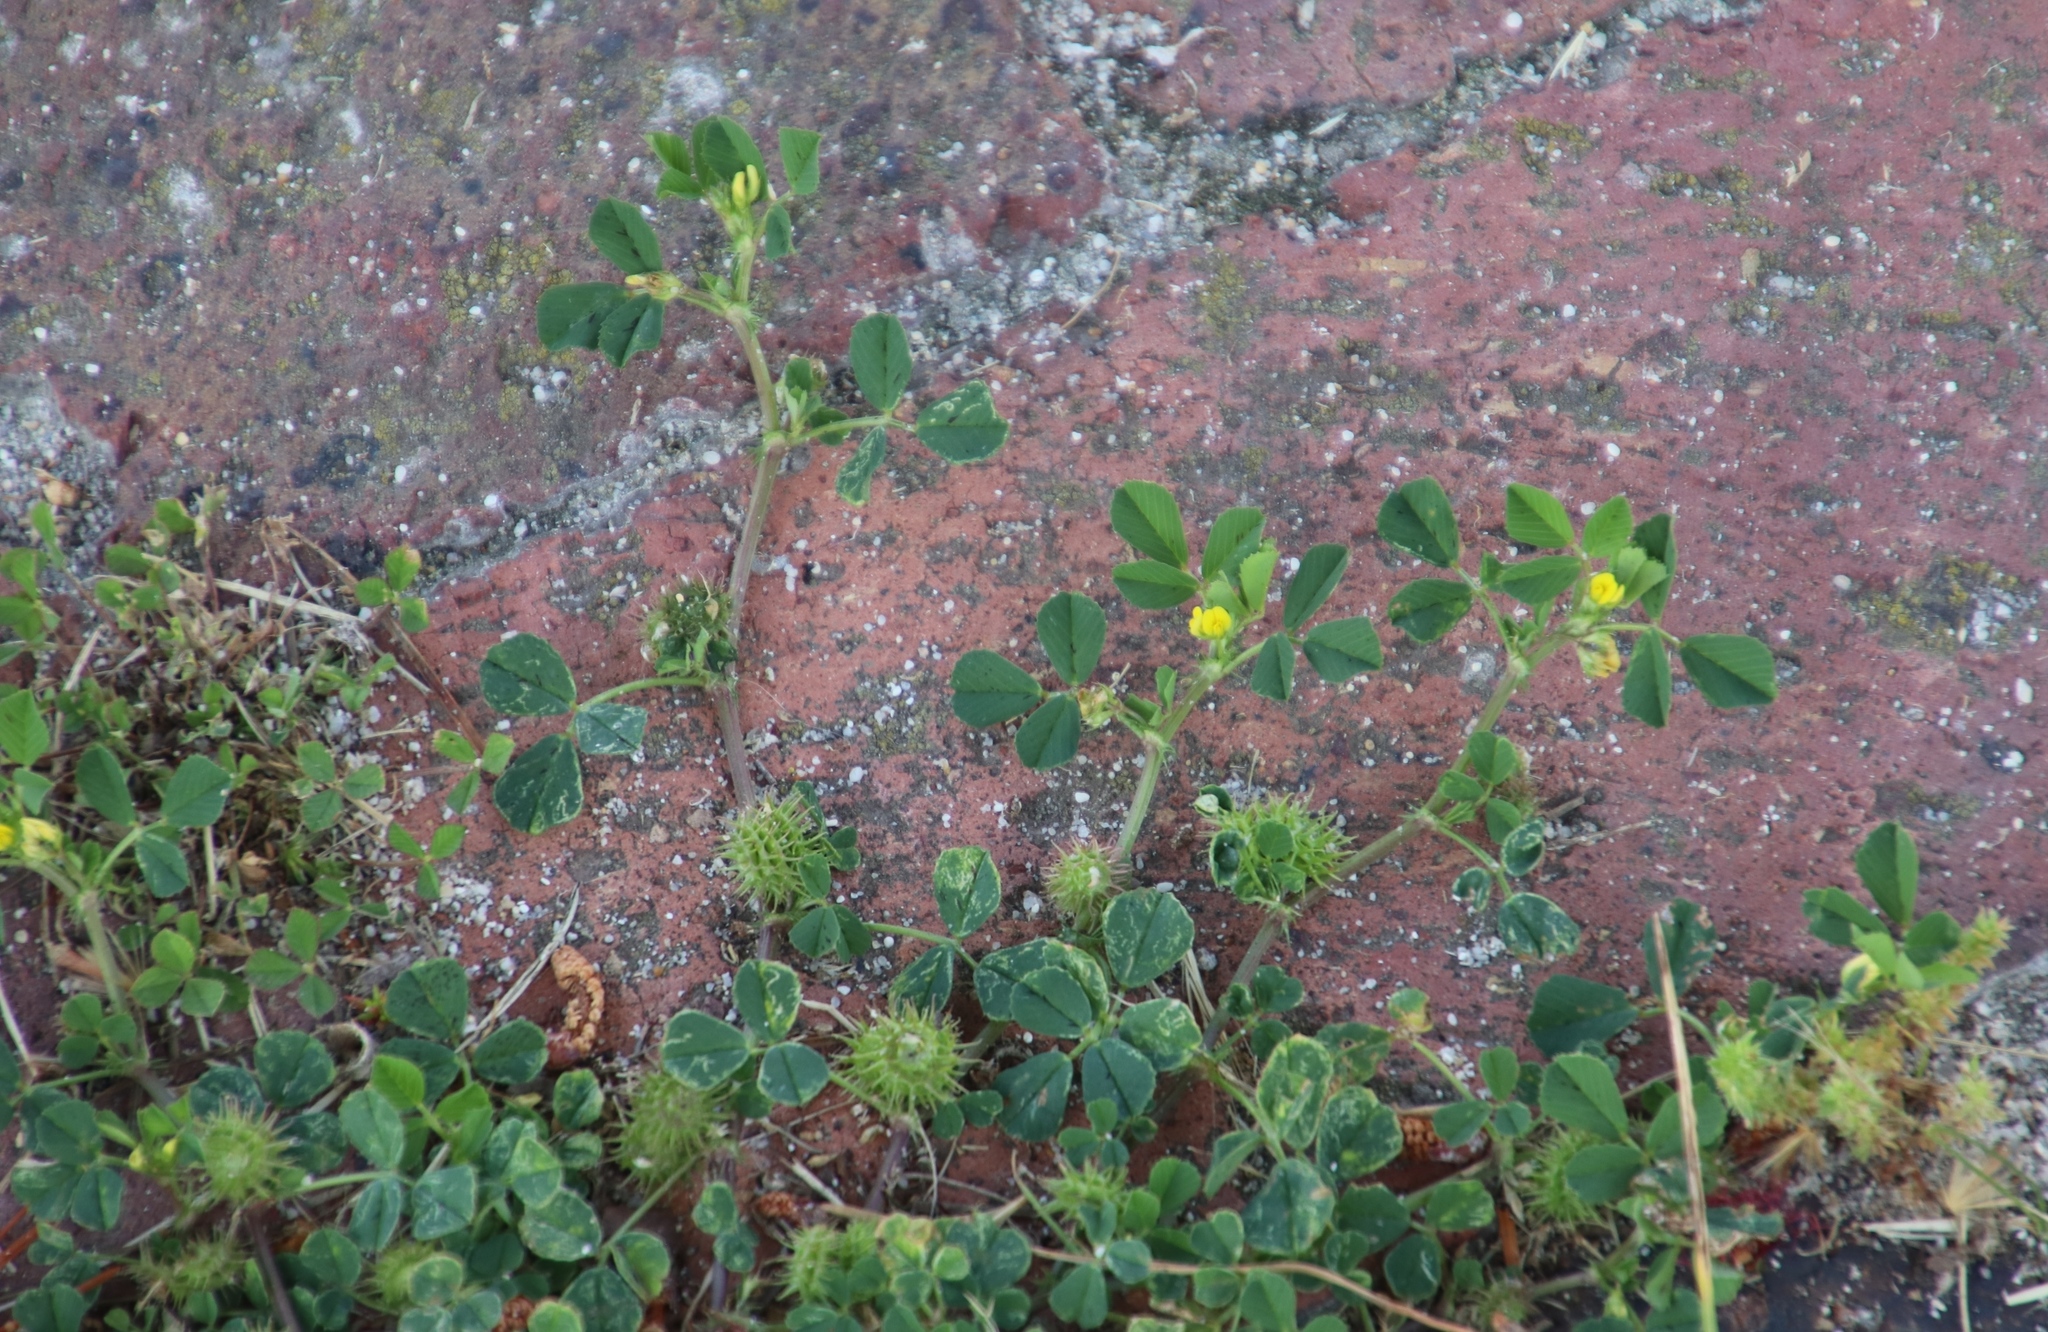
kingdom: Plantae
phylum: Tracheophyta
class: Magnoliopsida
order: Fabales
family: Fabaceae
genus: Medicago
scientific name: Medicago polymorpha
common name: Burclover
